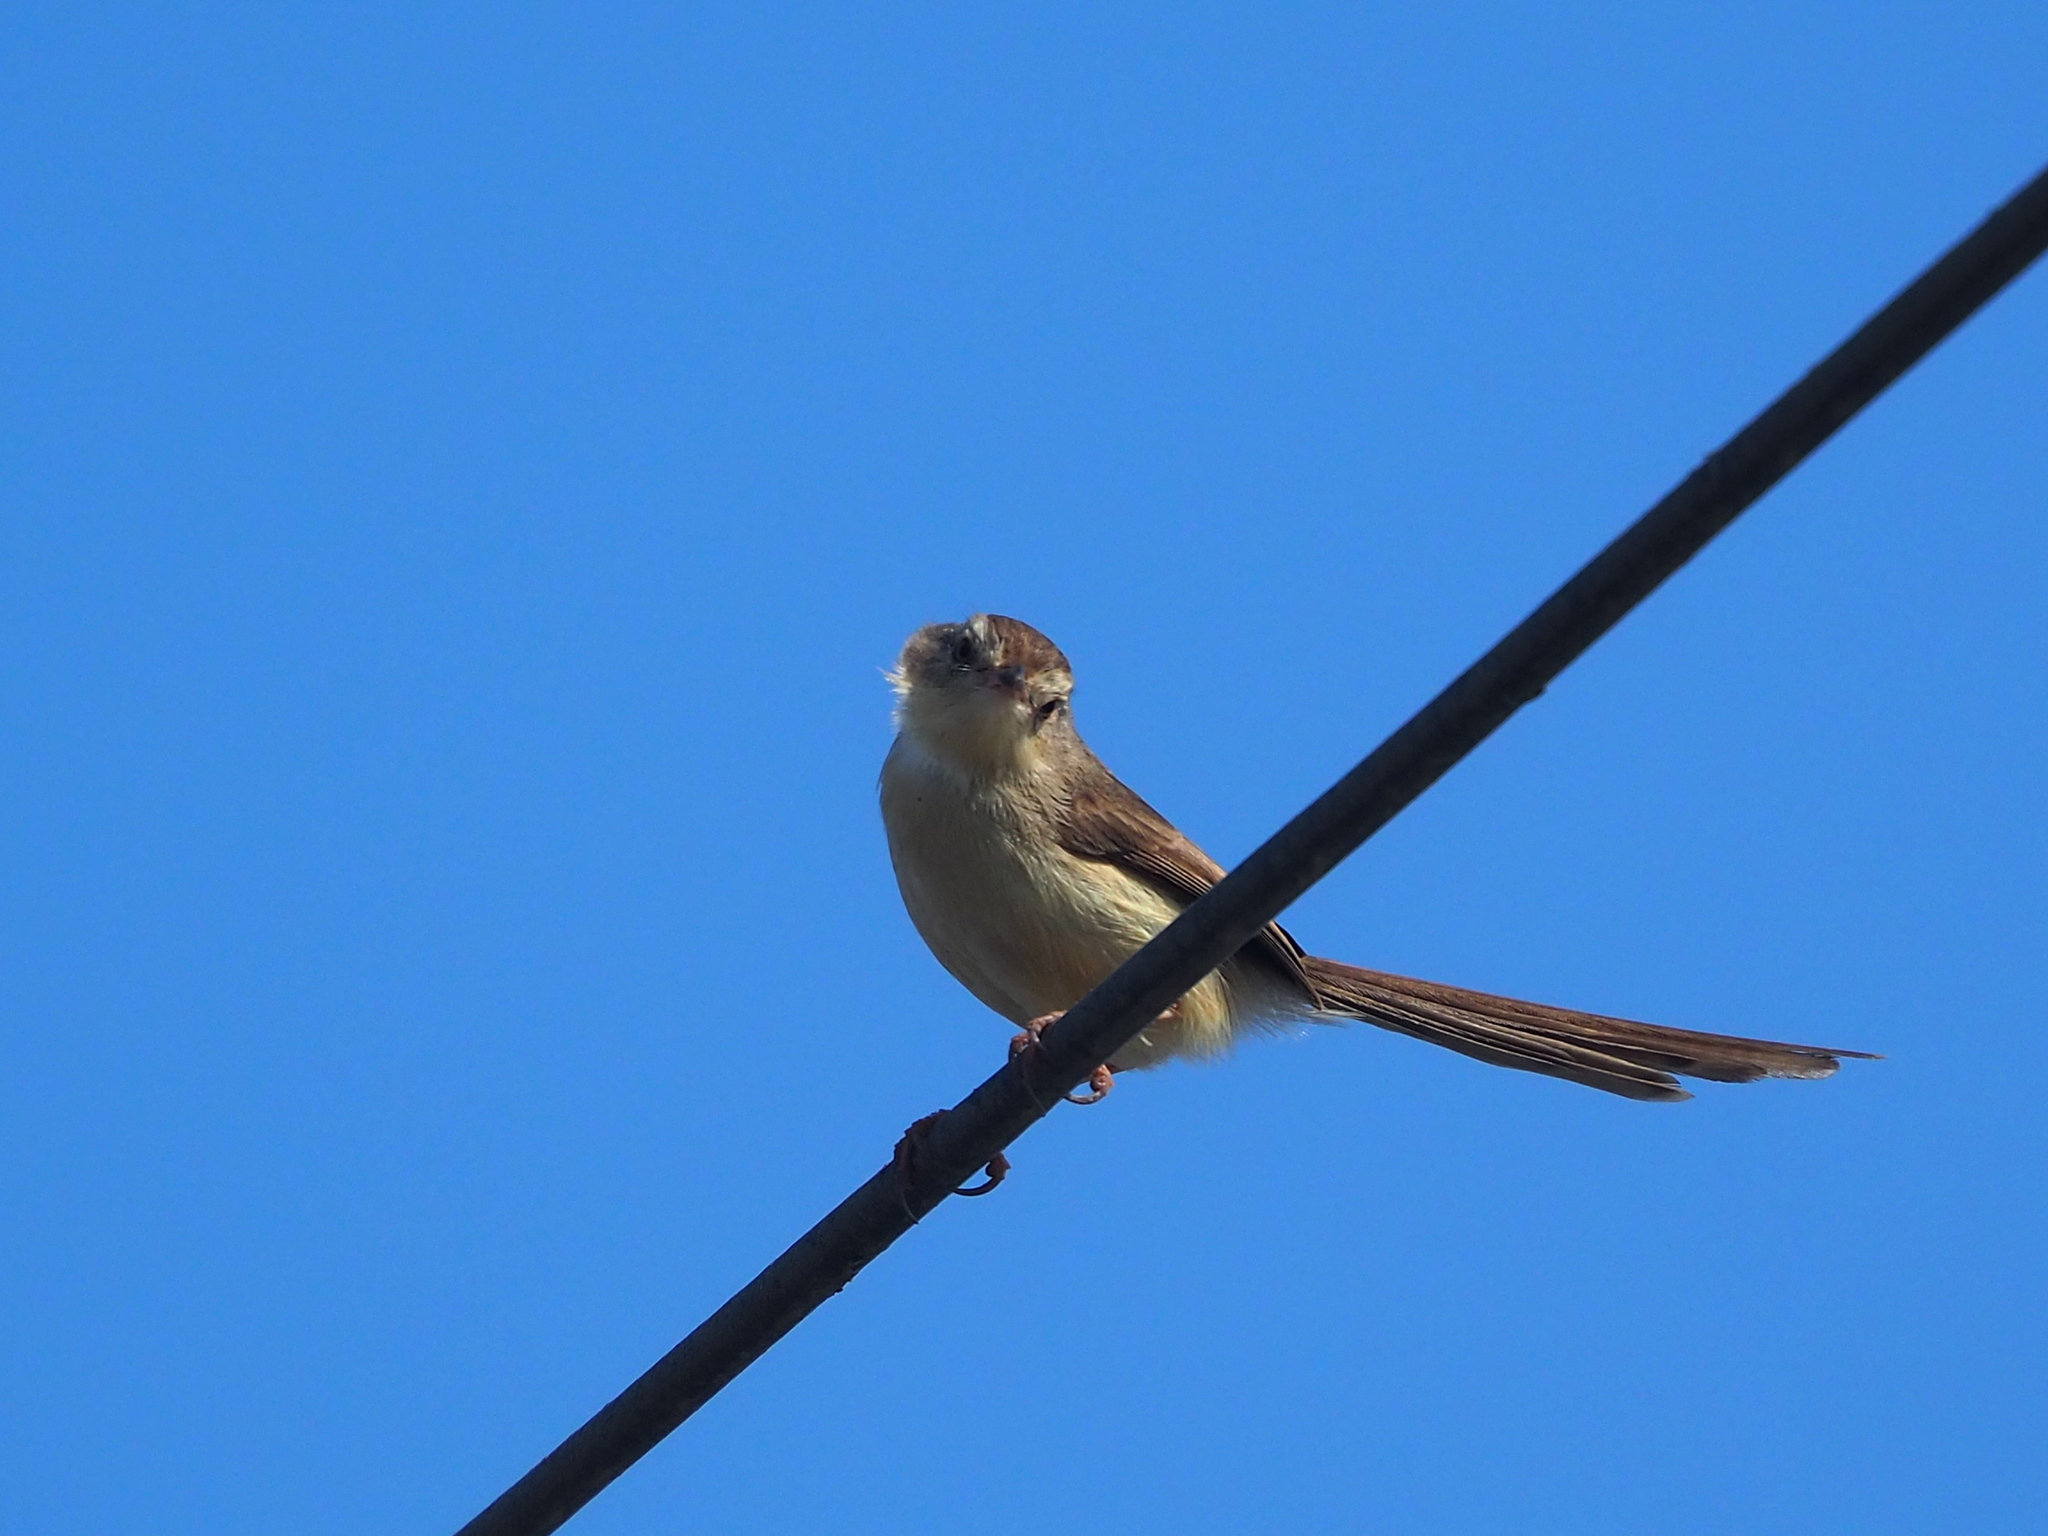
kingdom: Animalia
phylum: Chordata
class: Aves
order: Passeriformes
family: Cisticolidae
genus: Prinia
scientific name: Prinia inornata
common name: Plain prinia
